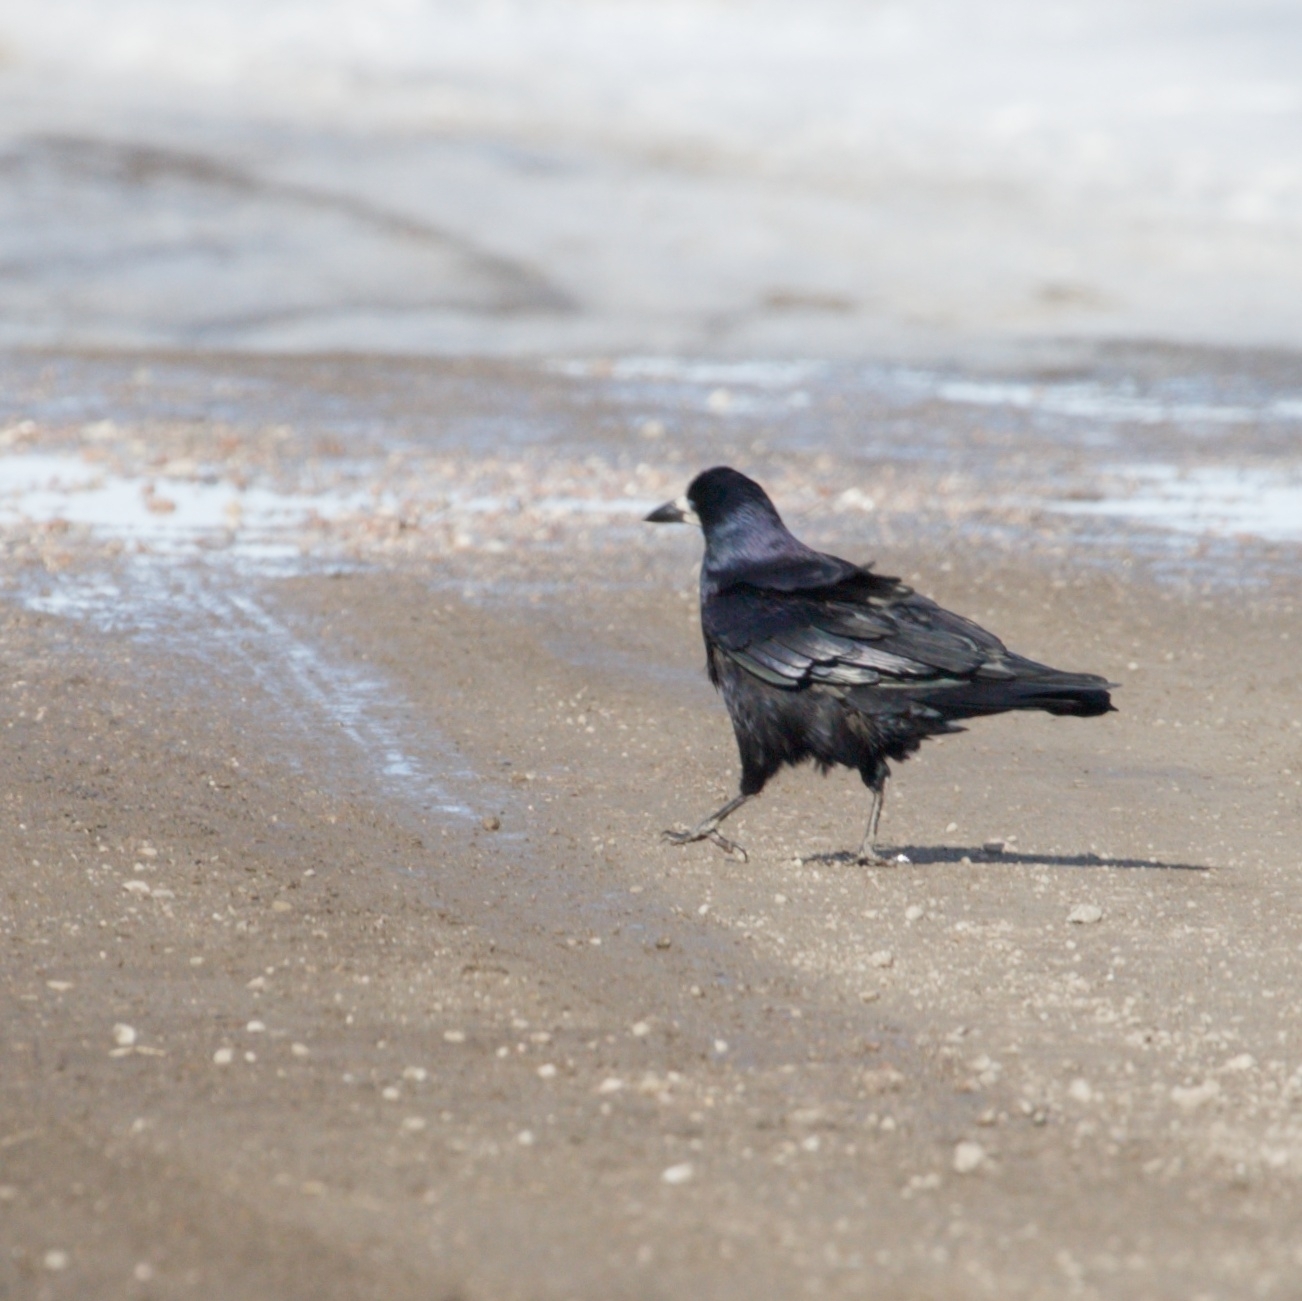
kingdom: Animalia
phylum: Chordata
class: Aves
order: Passeriformes
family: Corvidae
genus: Corvus
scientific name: Corvus frugilegus
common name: Rook
